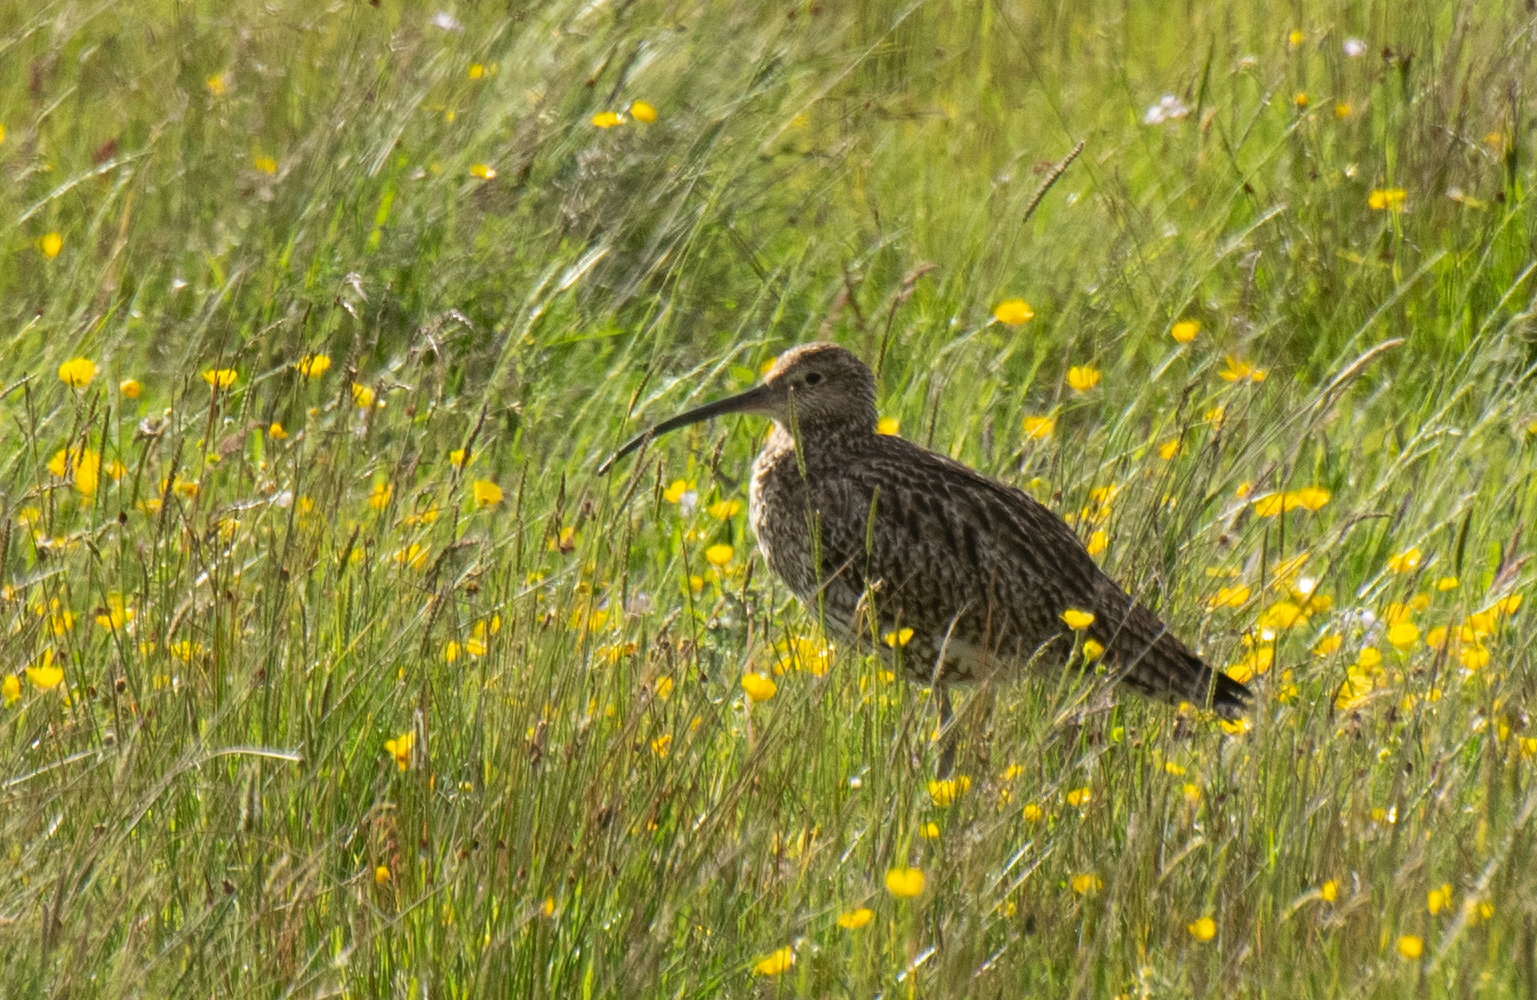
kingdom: Animalia
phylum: Chordata
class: Aves
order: Charadriiformes
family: Scolopacidae
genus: Numenius
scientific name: Numenius arquata
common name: Eurasian curlew
